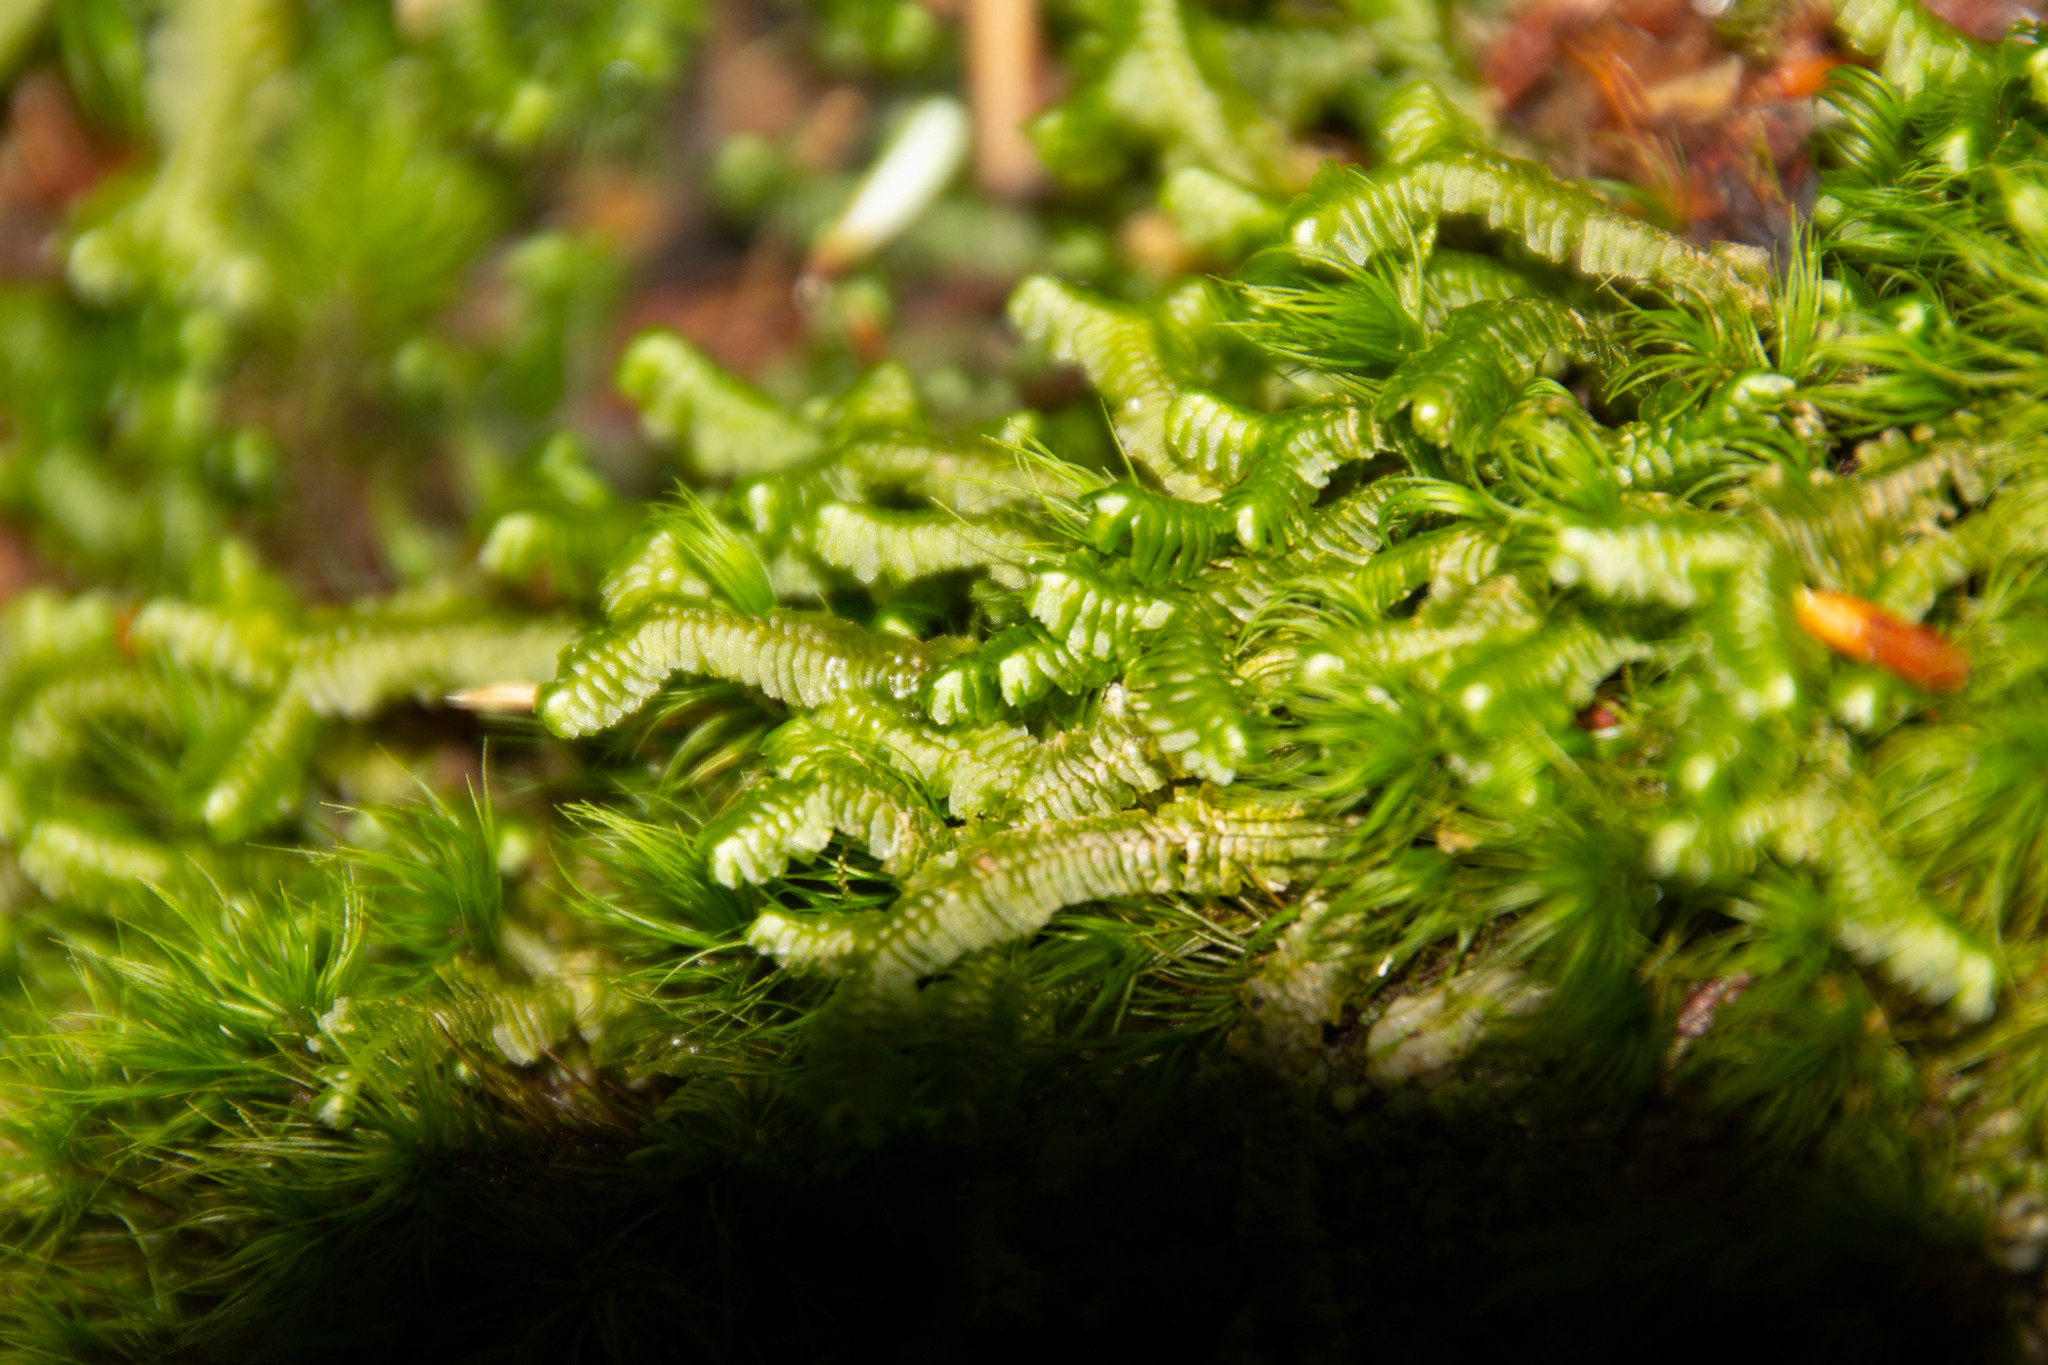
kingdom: Plantae
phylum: Marchantiophyta
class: Jungermanniopsida
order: Jungermanniales
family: Lepidoziaceae
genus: Bazzania
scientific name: Bazzania trilobata
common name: Three-lobed whipwort
